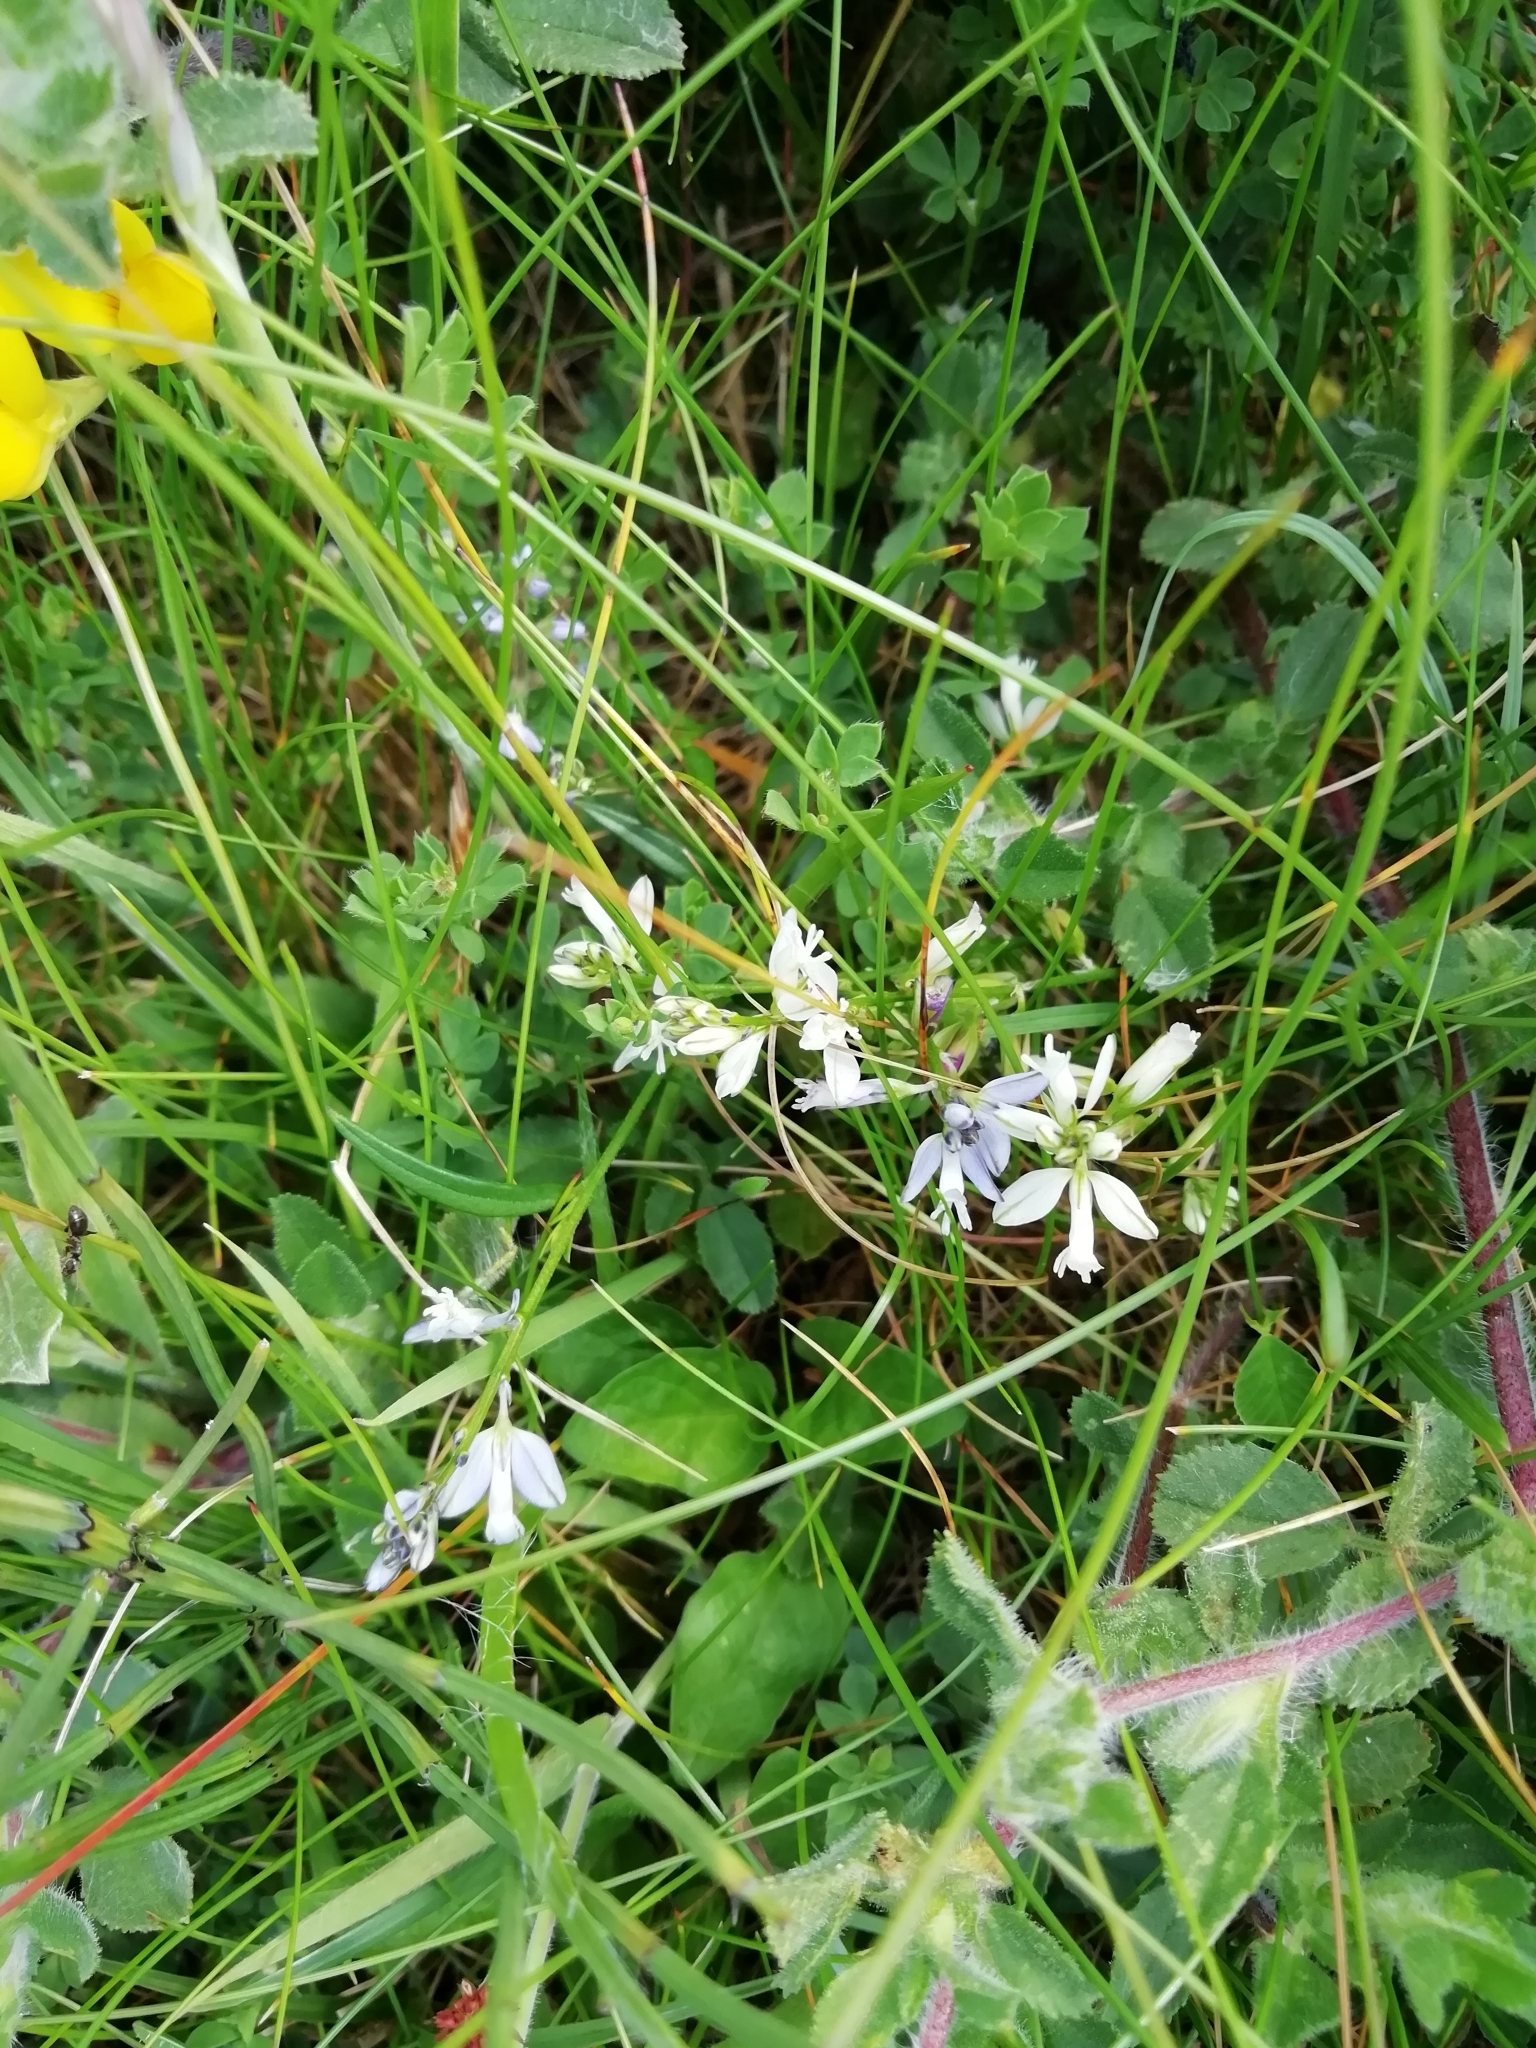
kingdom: Plantae
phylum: Tracheophyta
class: Magnoliopsida
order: Fabales
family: Polygalaceae
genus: Polygala
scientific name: Polygala vulgaris
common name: Common milkwort
